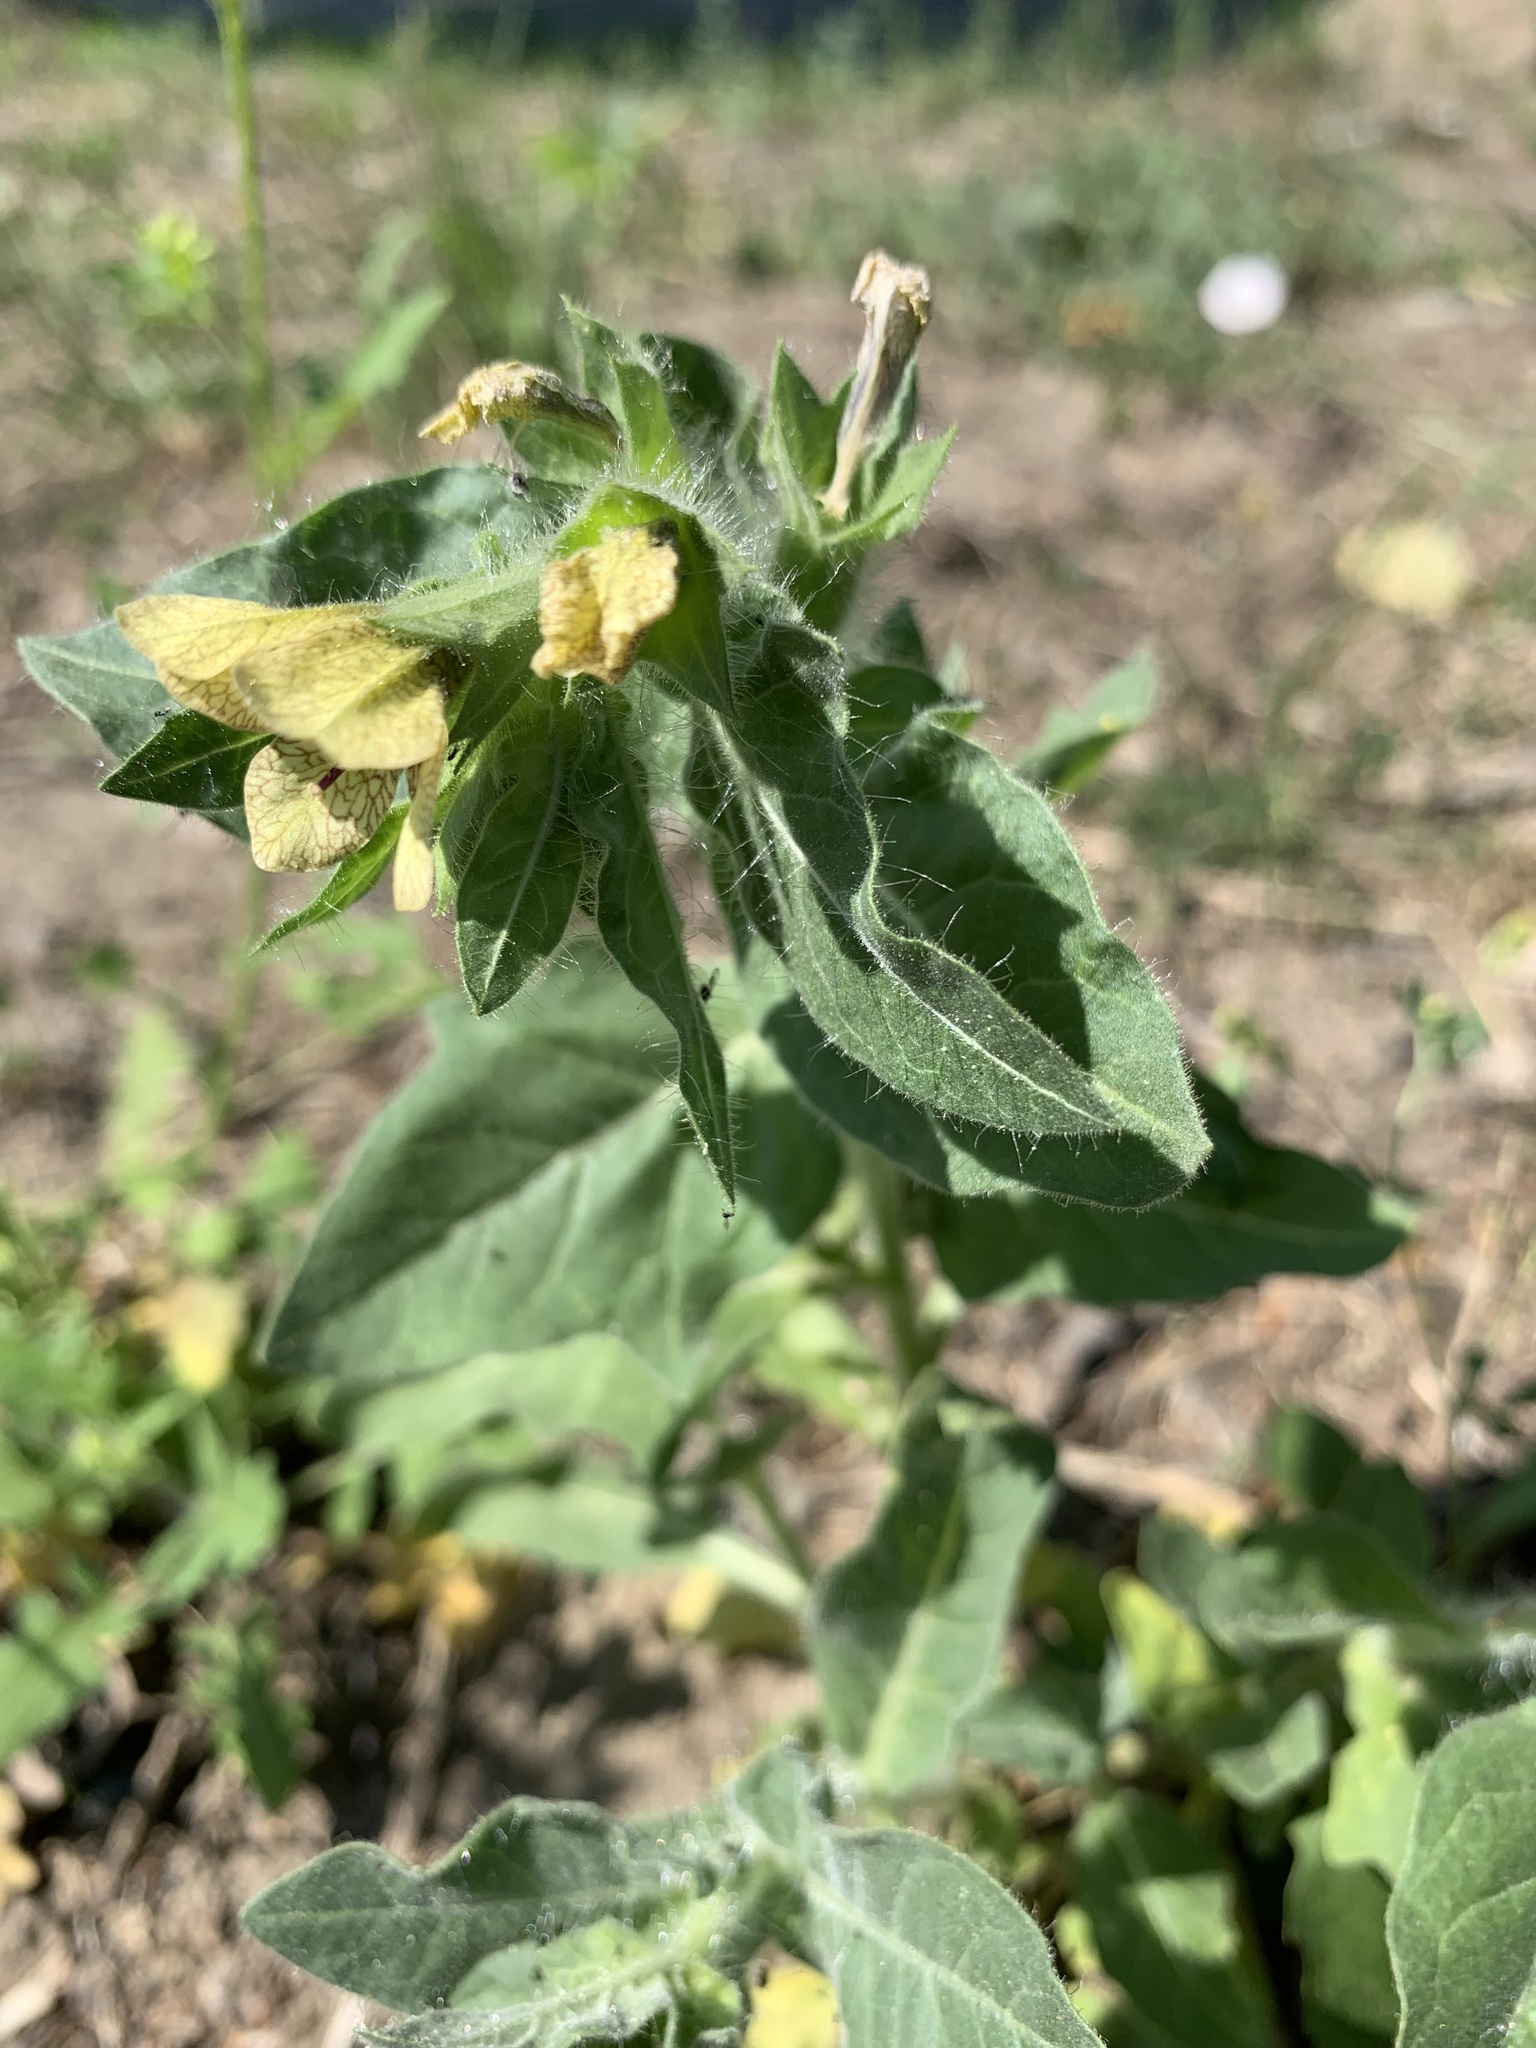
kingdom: Plantae
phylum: Tracheophyta
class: Magnoliopsida
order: Solanales
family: Solanaceae
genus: Hyoscyamus
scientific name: Hyoscyamus niger
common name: Henbane
